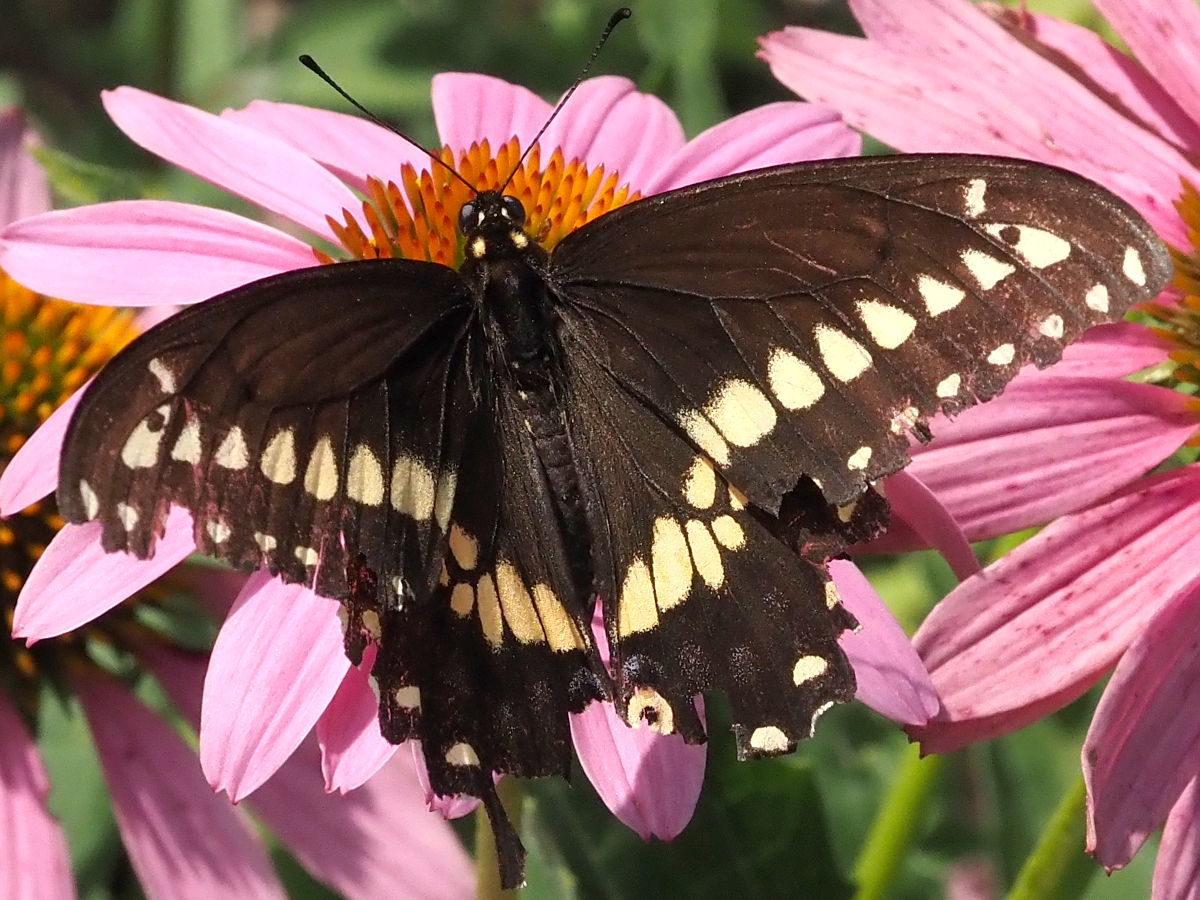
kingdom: Animalia
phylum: Arthropoda
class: Insecta
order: Lepidoptera
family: Papilionidae
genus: Papilio
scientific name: Papilio polyxenes
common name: Black swallowtail
